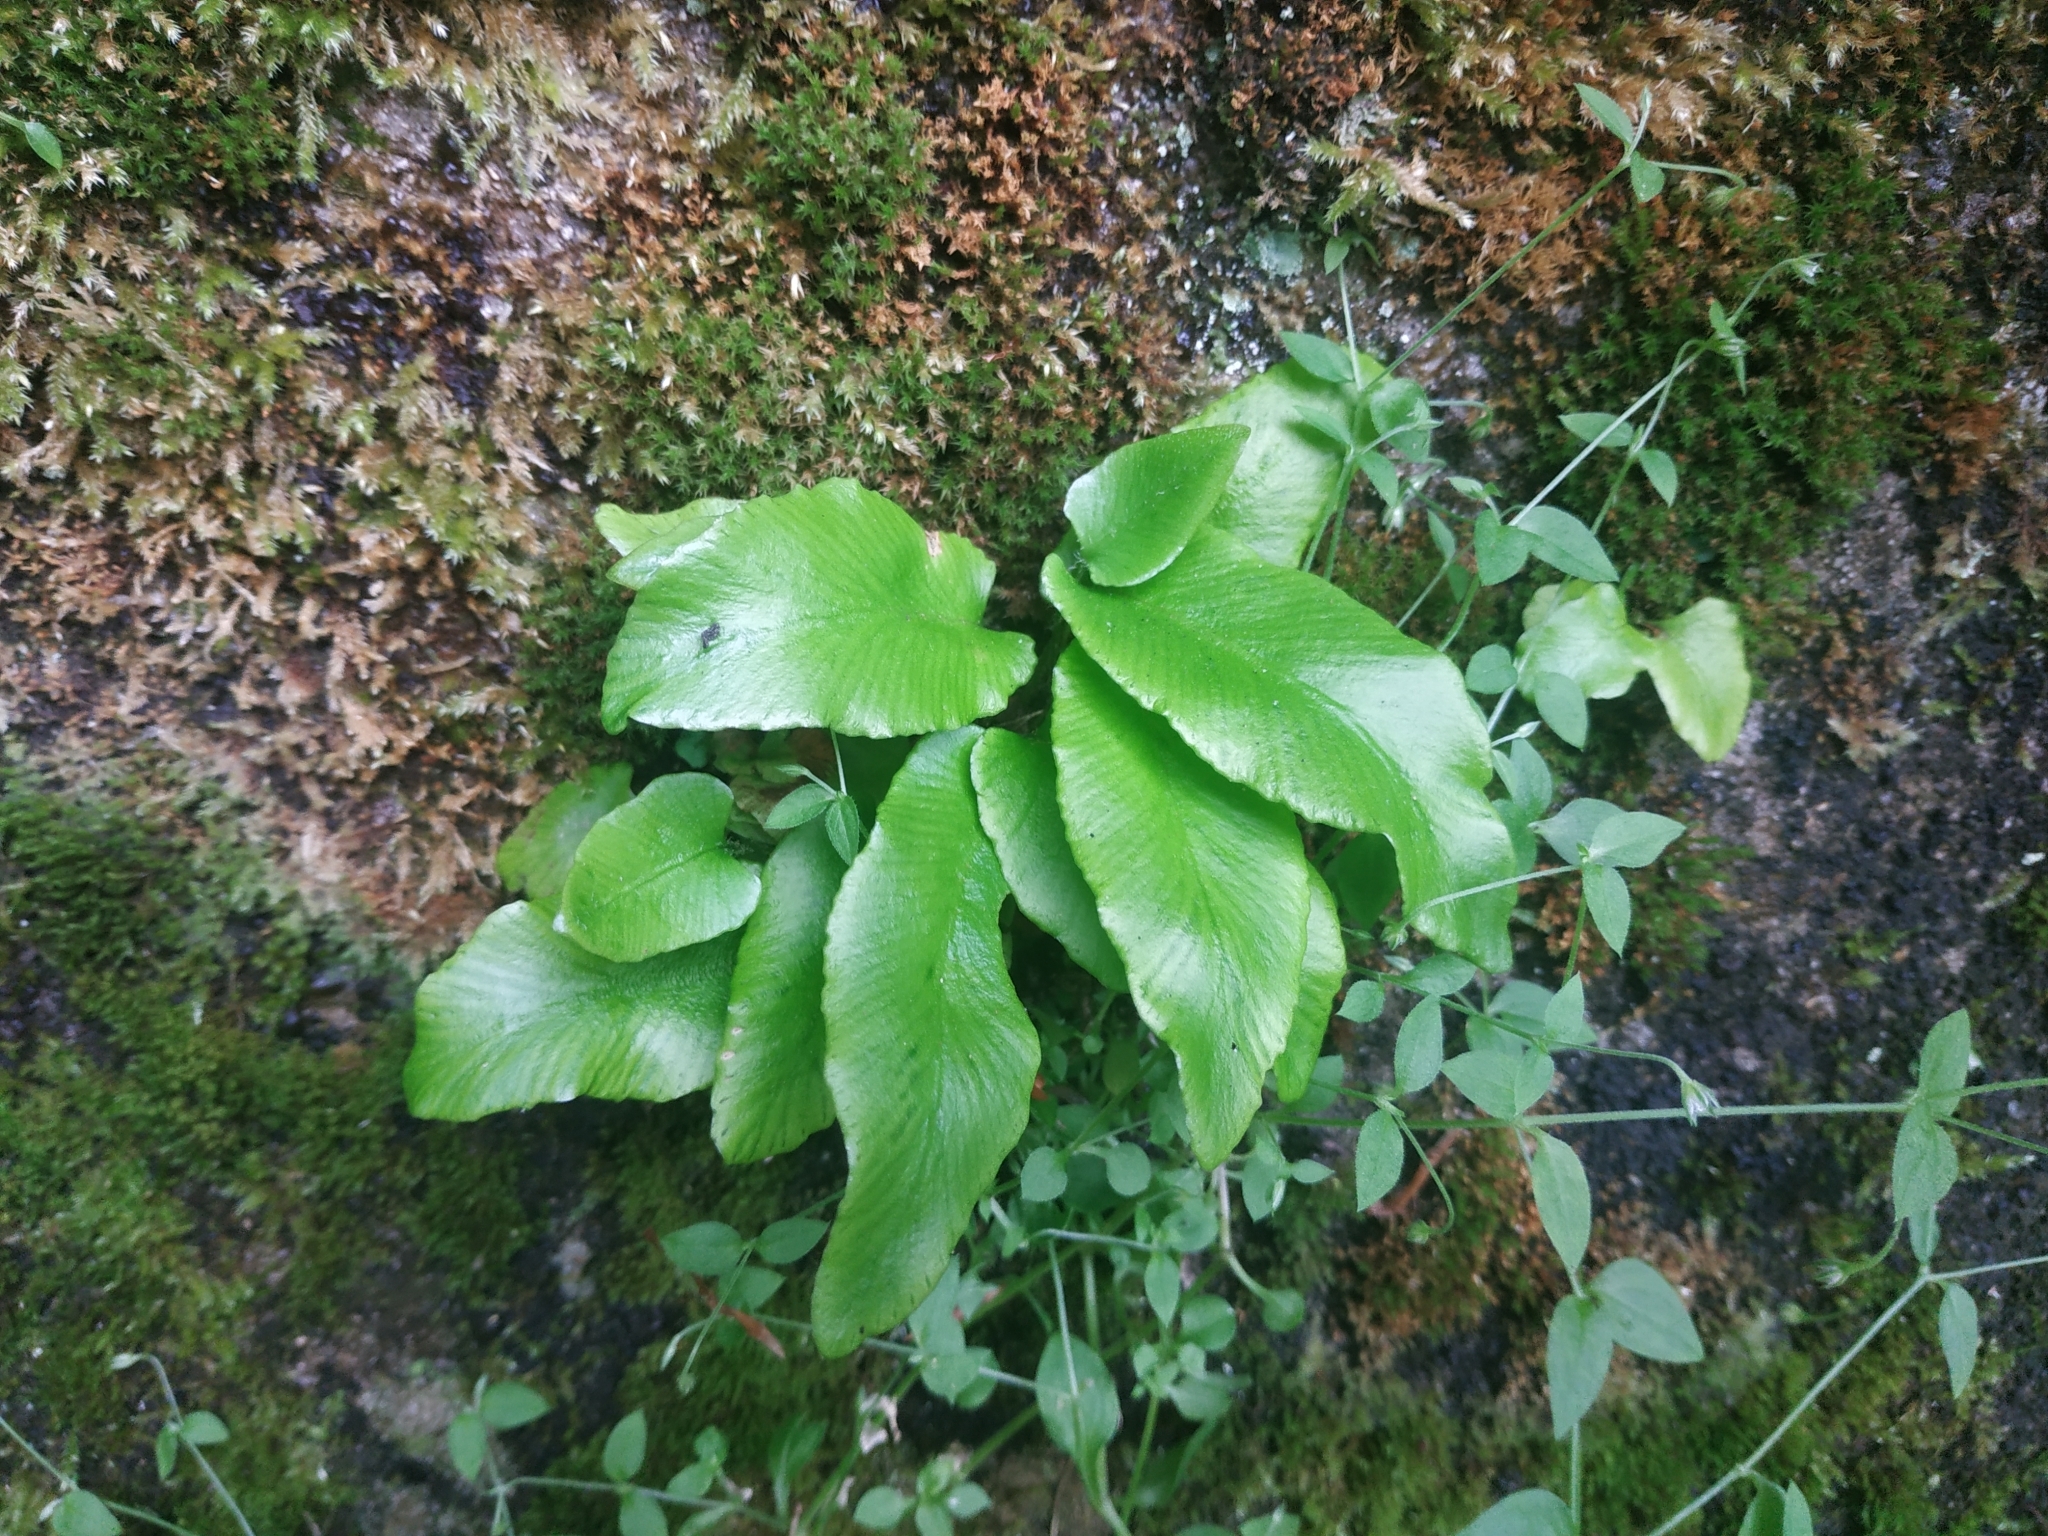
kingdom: Plantae
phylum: Tracheophyta
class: Polypodiopsida
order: Polypodiales
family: Aspleniaceae
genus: Asplenium
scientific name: Asplenium scolopendrium
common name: Hart's-tongue fern
